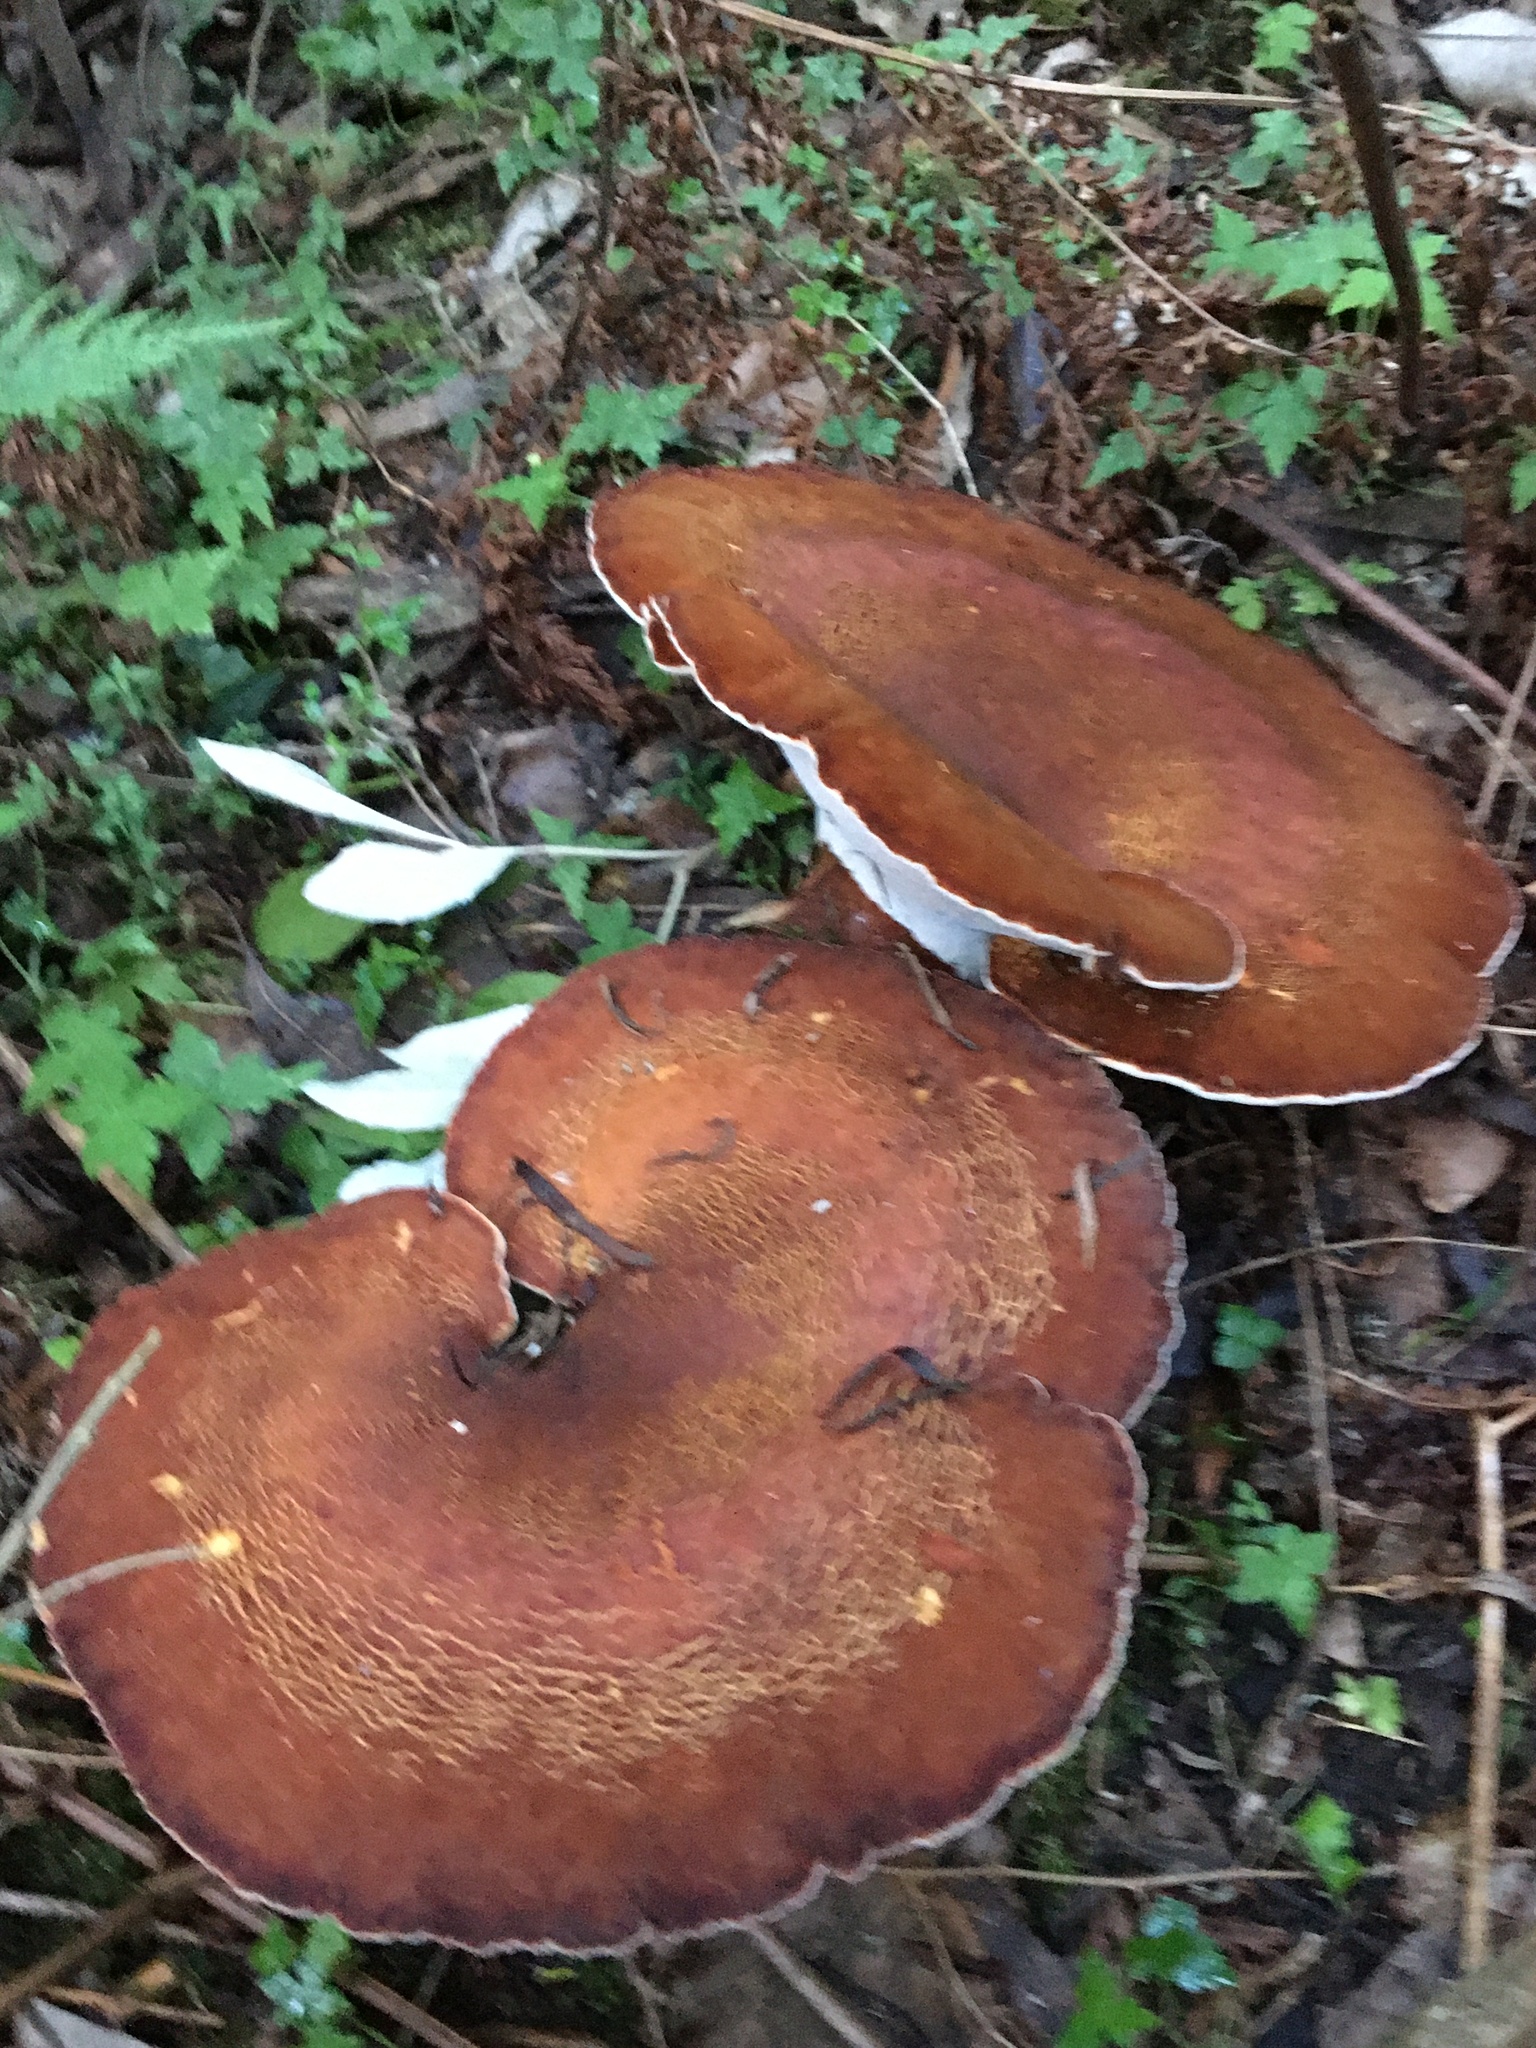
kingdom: Fungi
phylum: Basidiomycota
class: Agaricomycetes
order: Polyporales
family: Fomitopsidaceae
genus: Fomitopsis
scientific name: Fomitopsis
